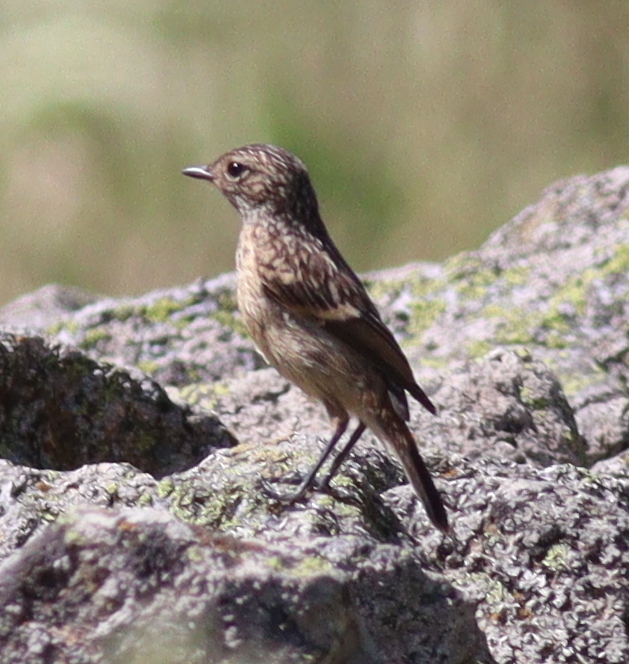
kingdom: Animalia
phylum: Chordata
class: Aves
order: Passeriformes
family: Muscicapidae
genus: Saxicola
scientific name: Saxicola rubicola
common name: European stonechat
